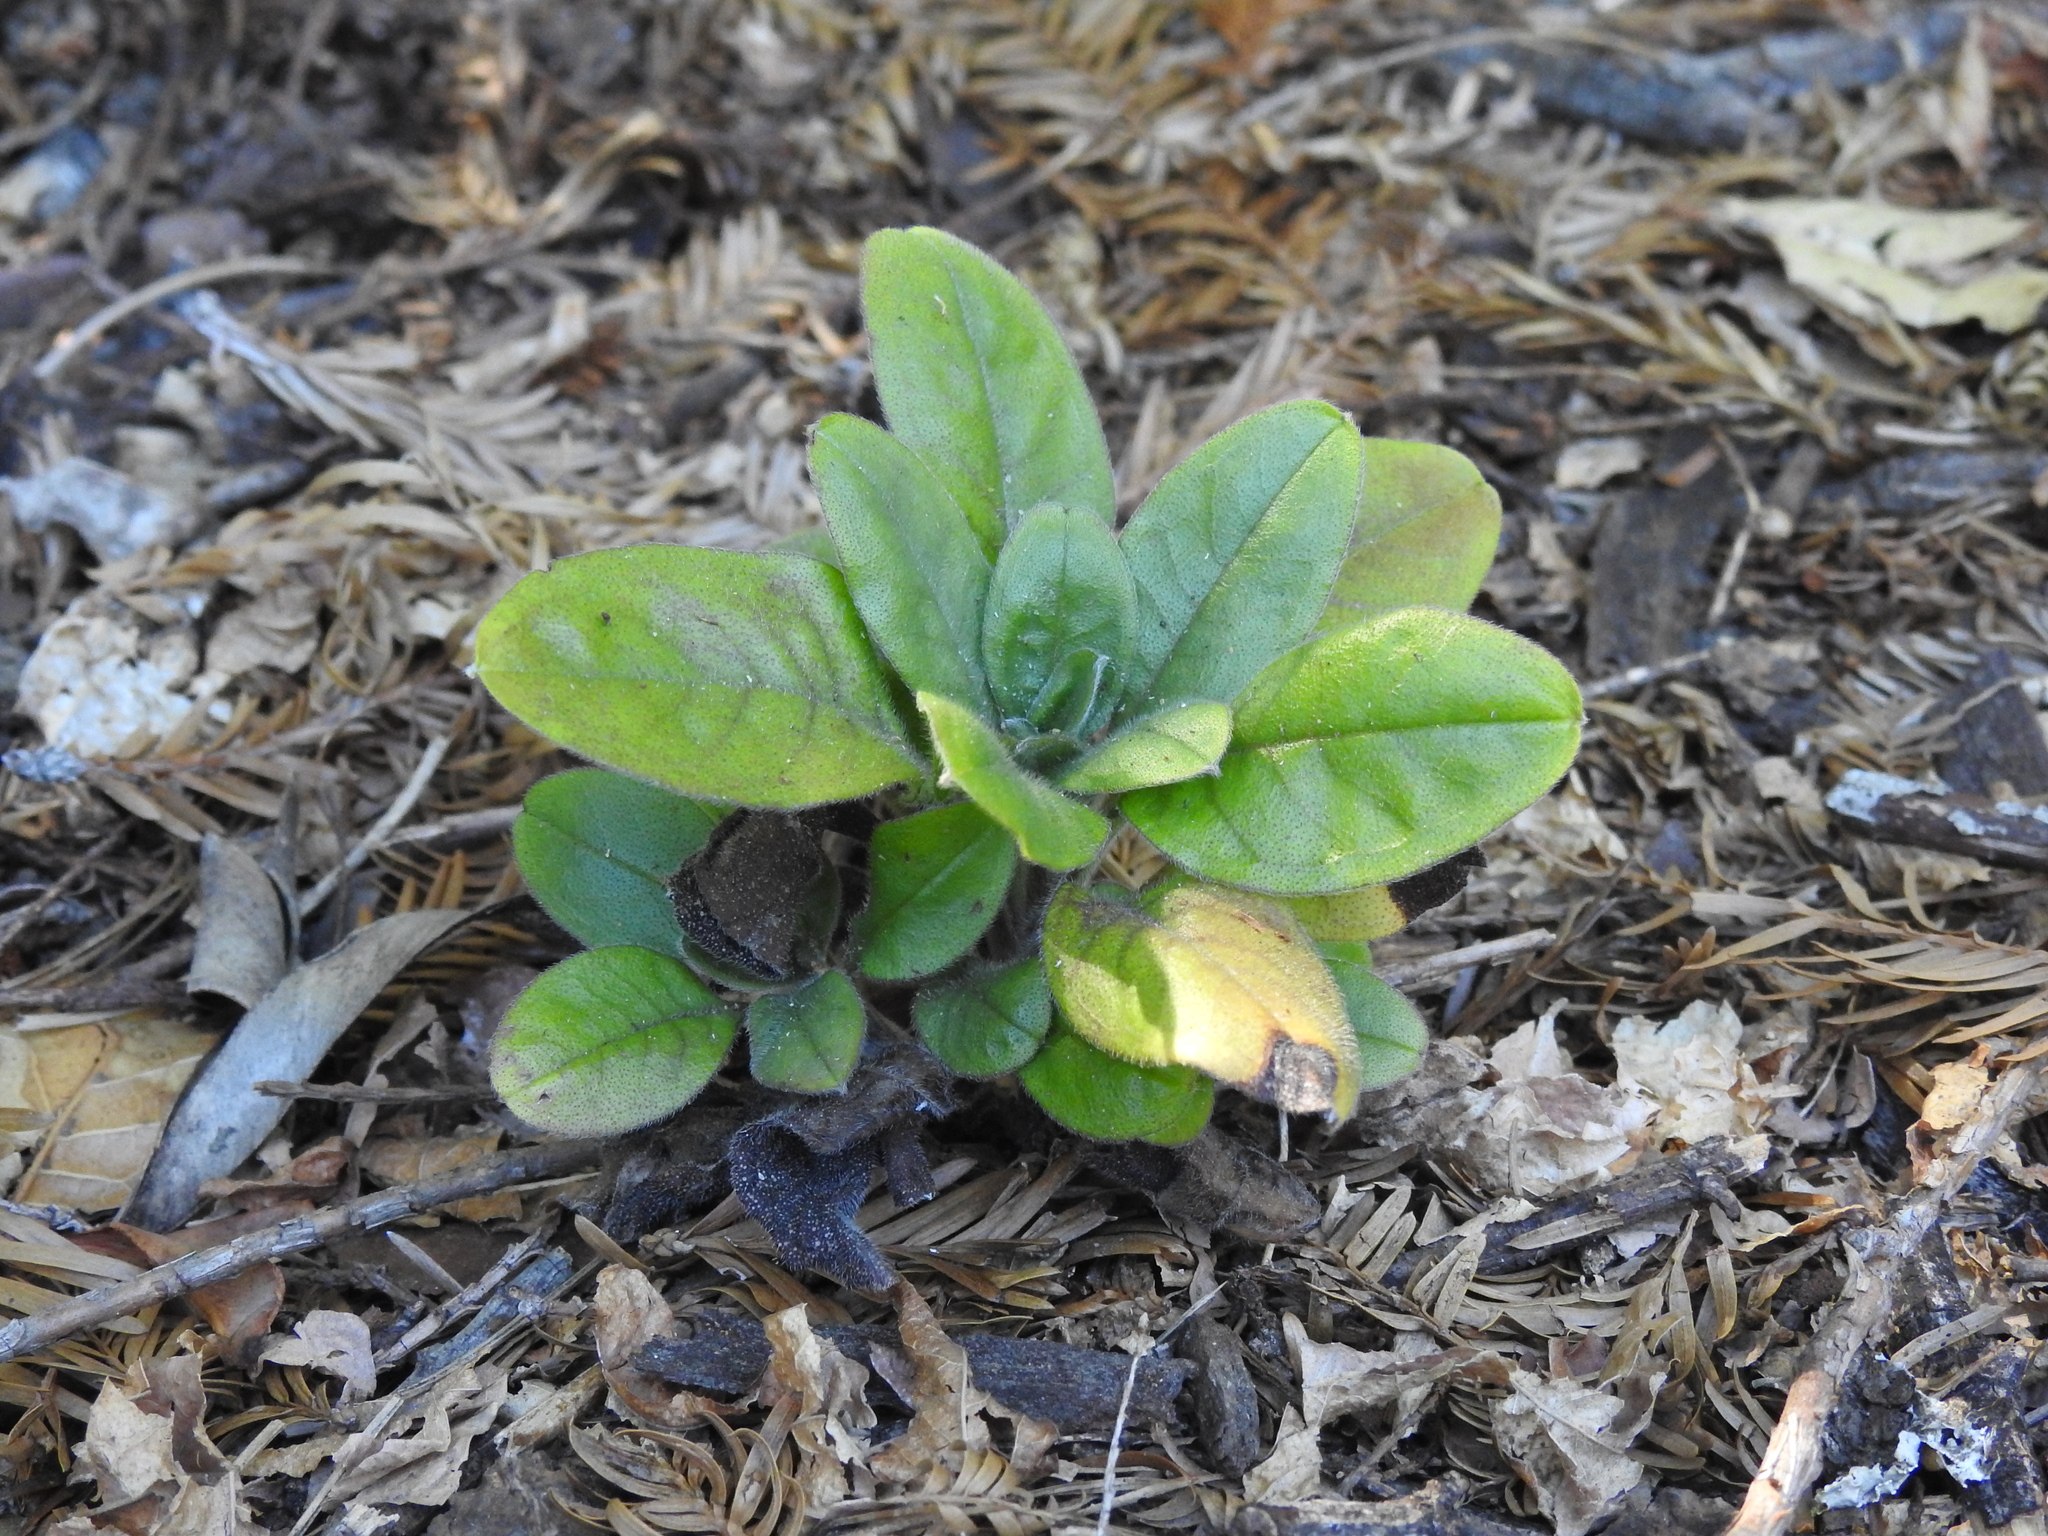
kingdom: Plantae
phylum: Tracheophyta
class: Magnoliopsida
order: Boraginales
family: Boraginaceae
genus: Myosotis
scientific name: Myosotis latifolia
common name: Broadleaf forget-me-not
